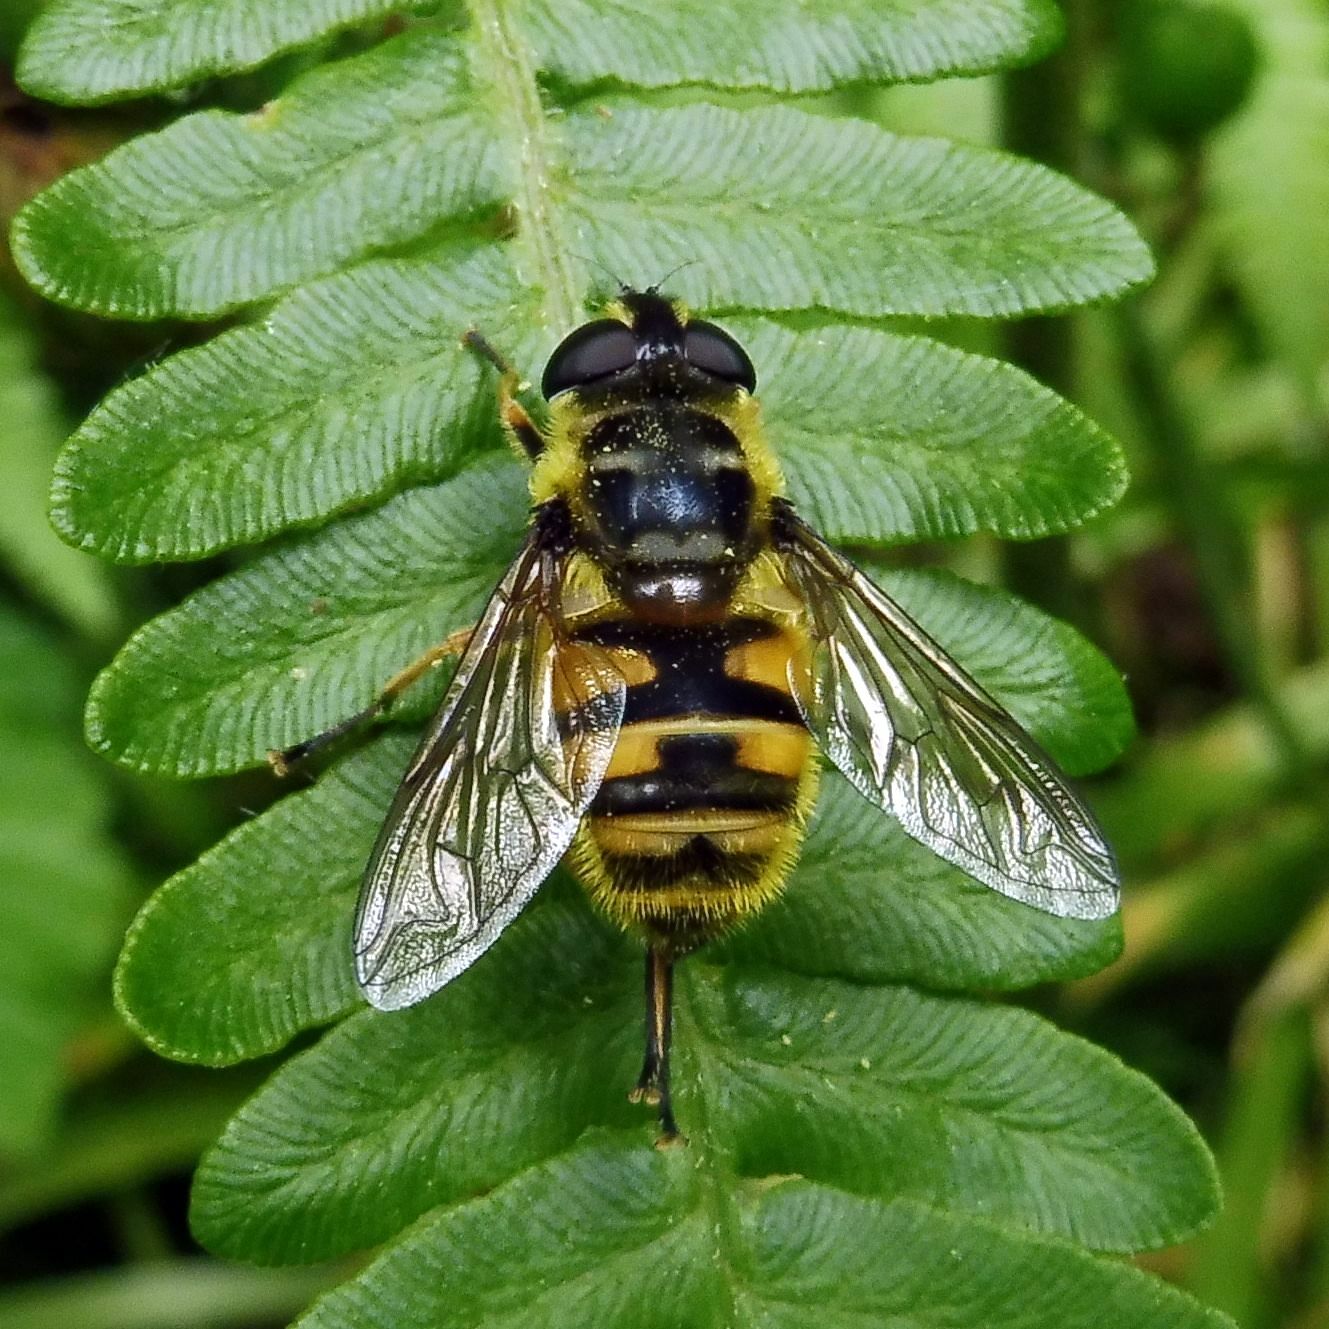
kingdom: Animalia
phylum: Arthropoda
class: Insecta
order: Diptera
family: Syrphidae
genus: Myathropa
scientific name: Myathropa florea
